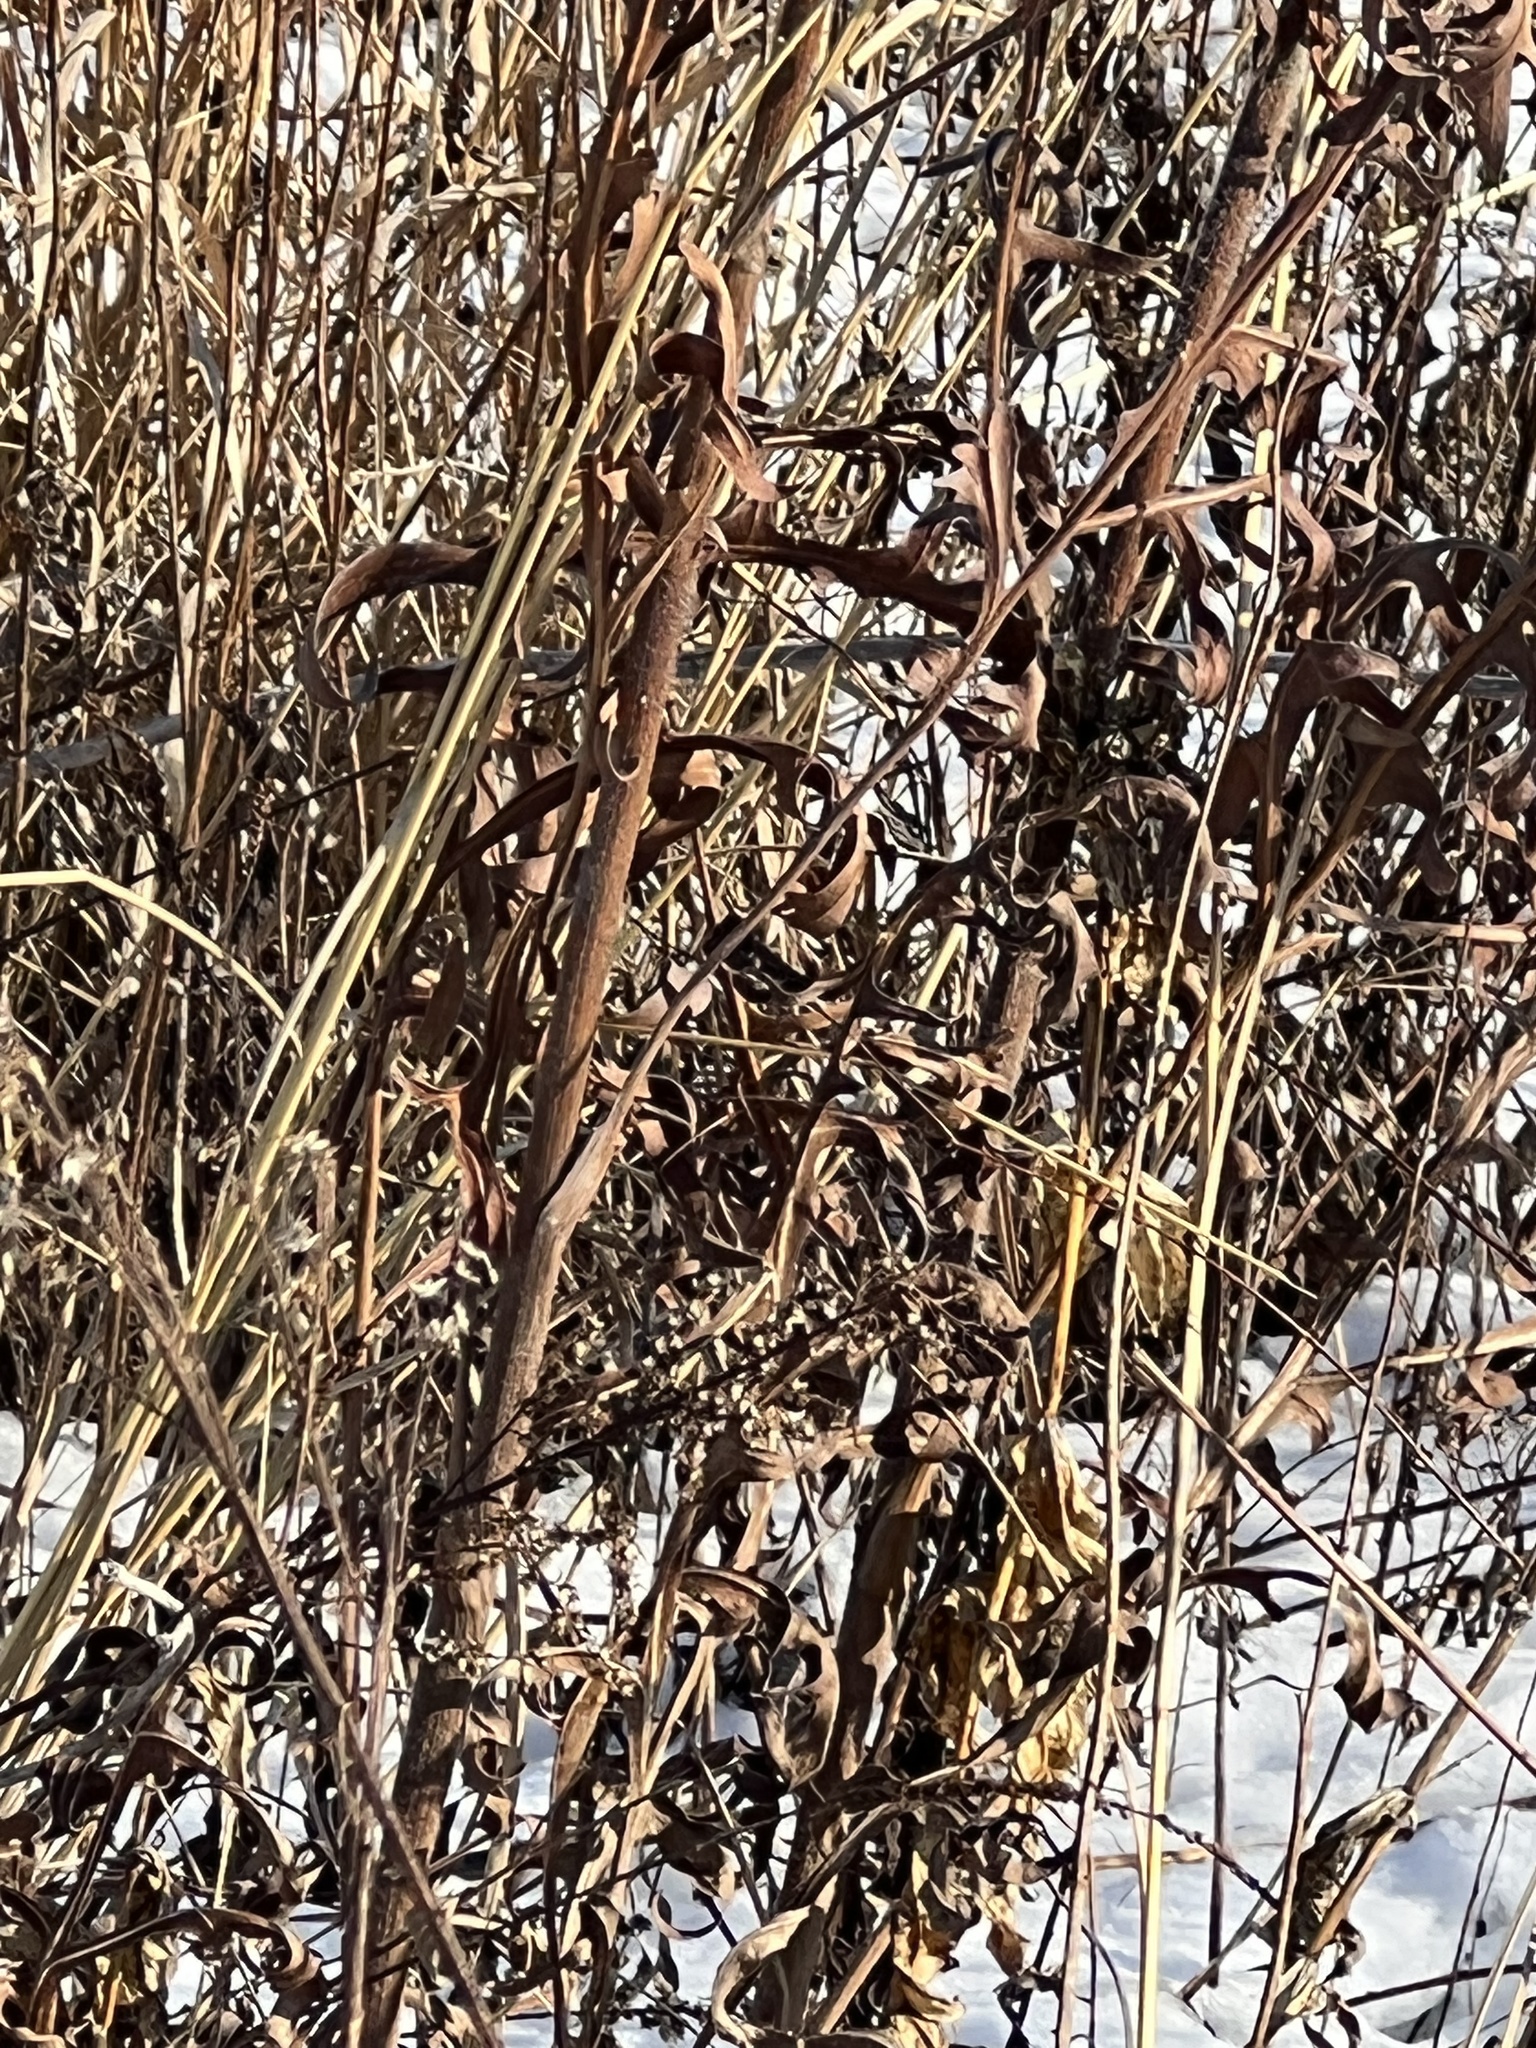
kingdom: Plantae
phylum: Tracheophyta
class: Magnoliopsida
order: Asterales
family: Asteraceae
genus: Silphium
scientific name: Silphium laciniatum
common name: Polarplant
